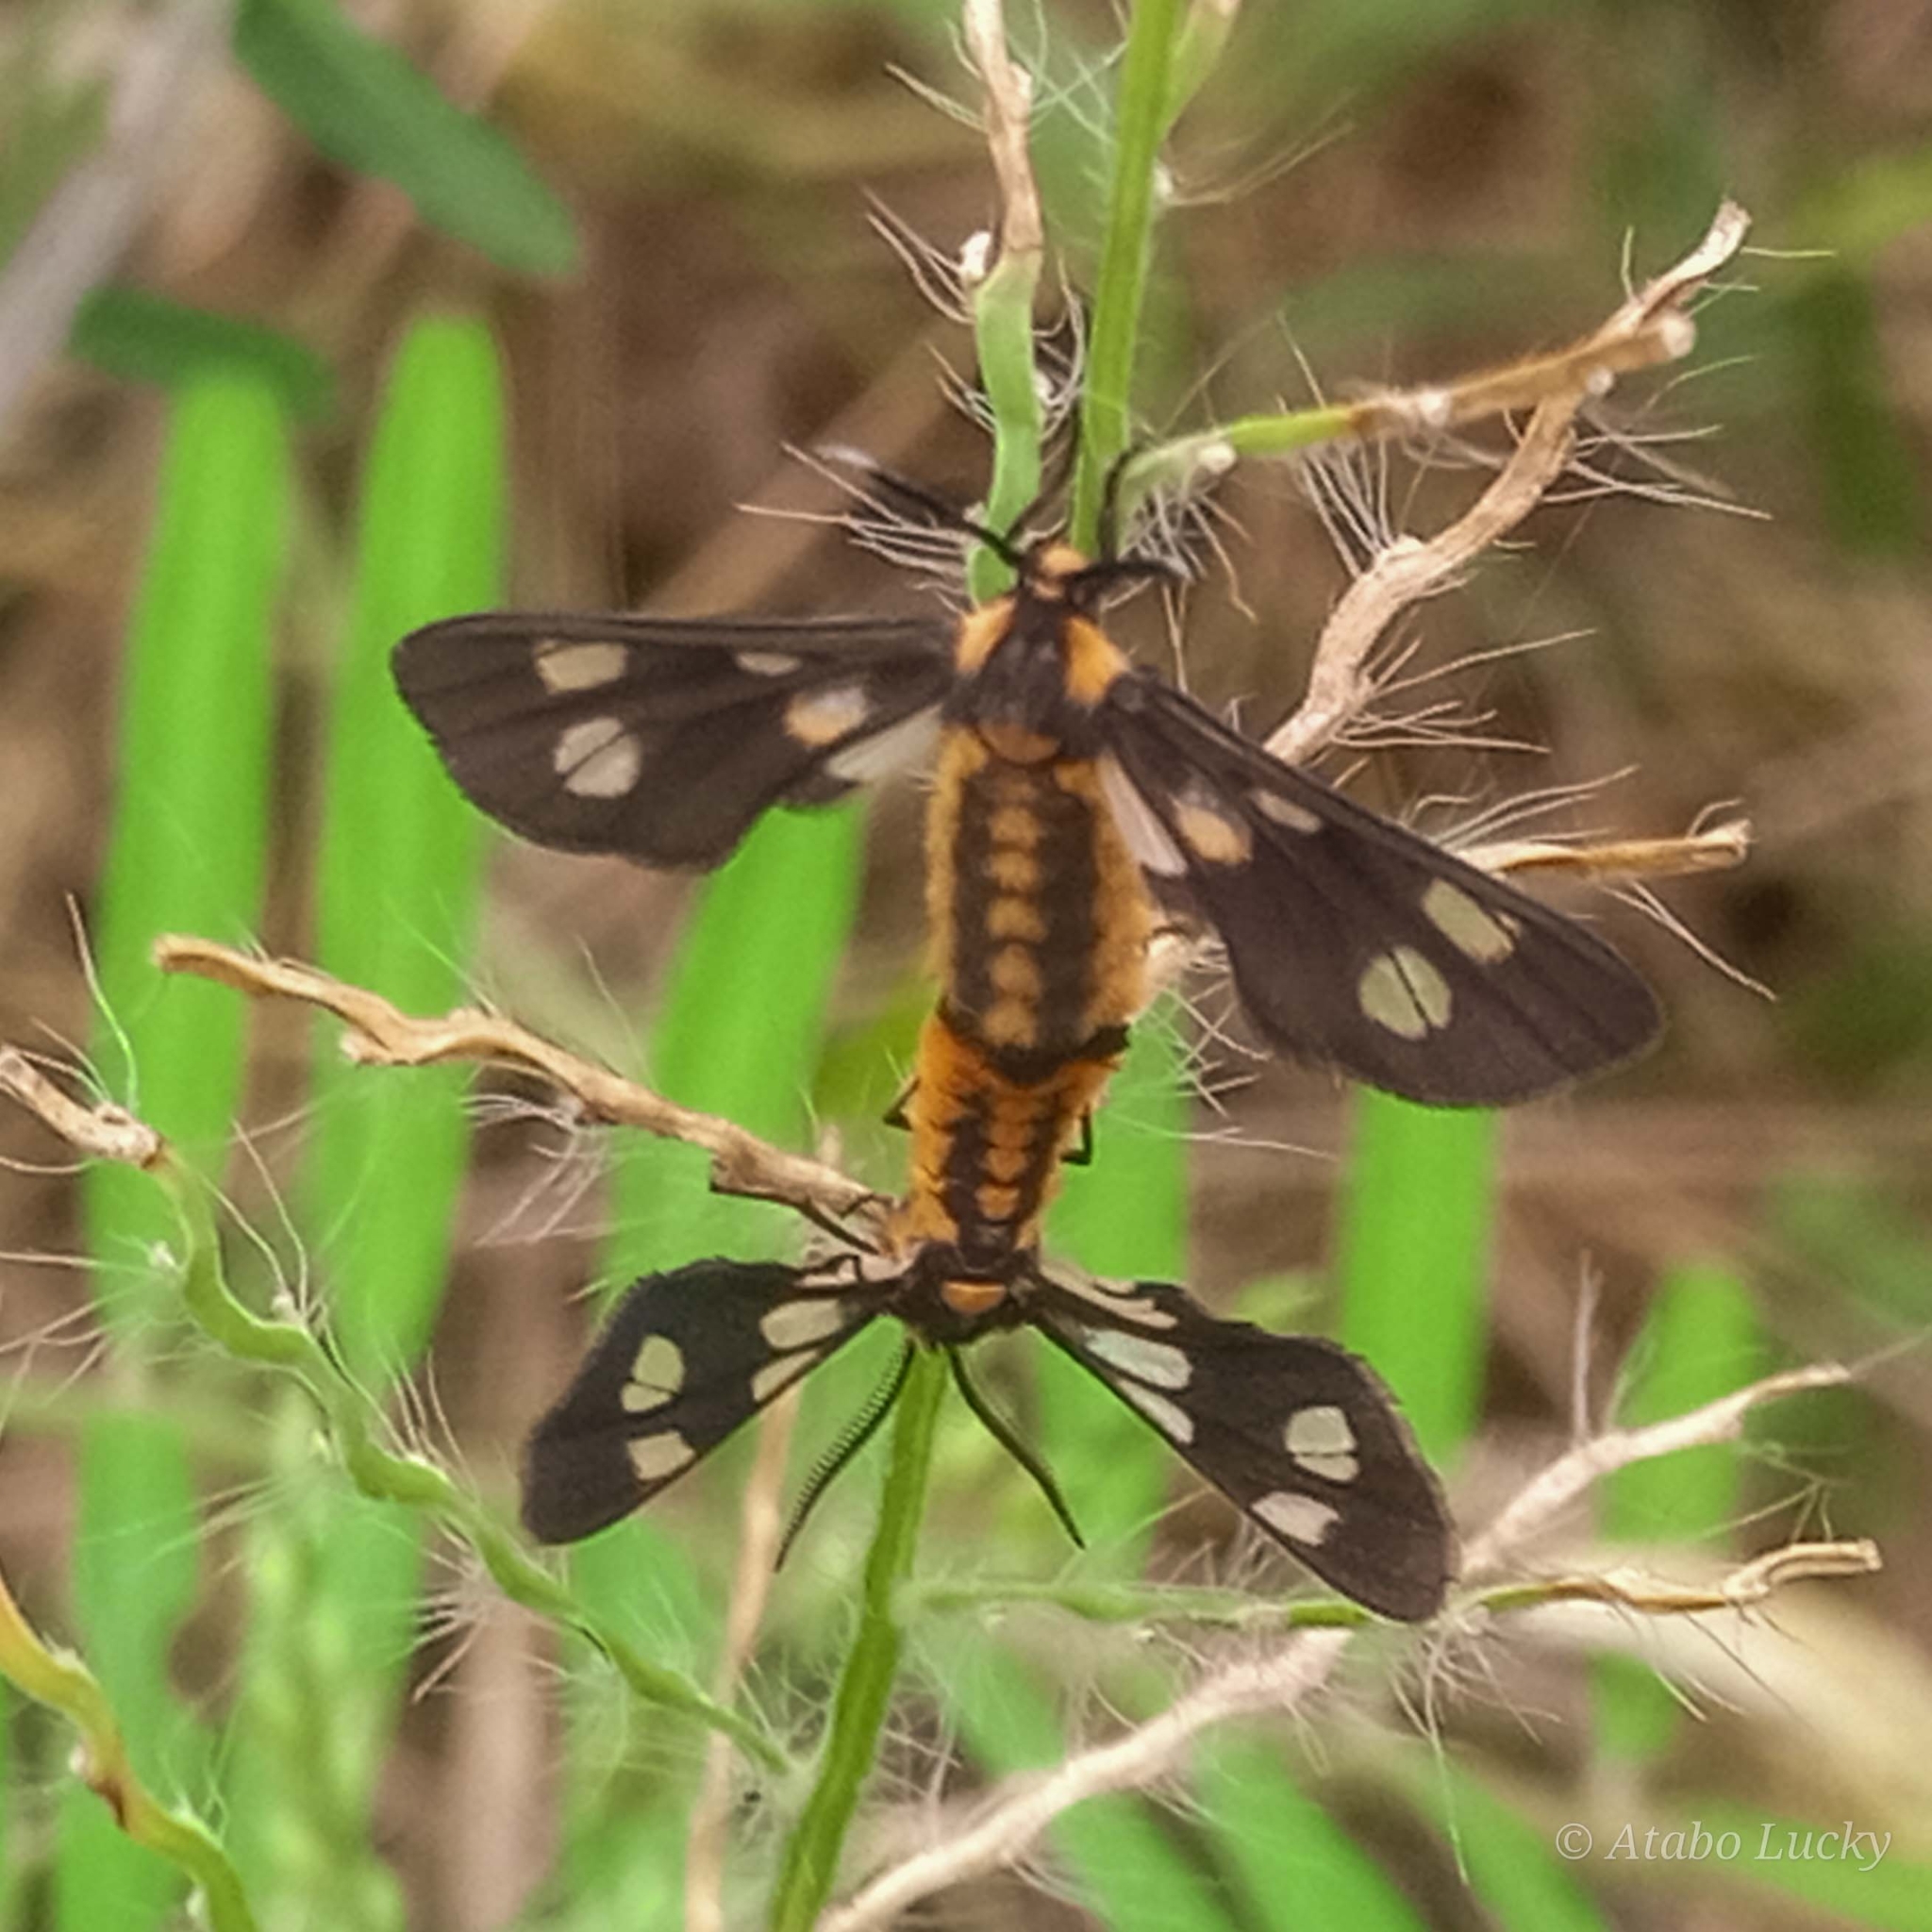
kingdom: Animalia
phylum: Arthropoda
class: Insecta
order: Lepidoptera
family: Erebidae
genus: Ceryx
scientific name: Ceryx anthraciformis
